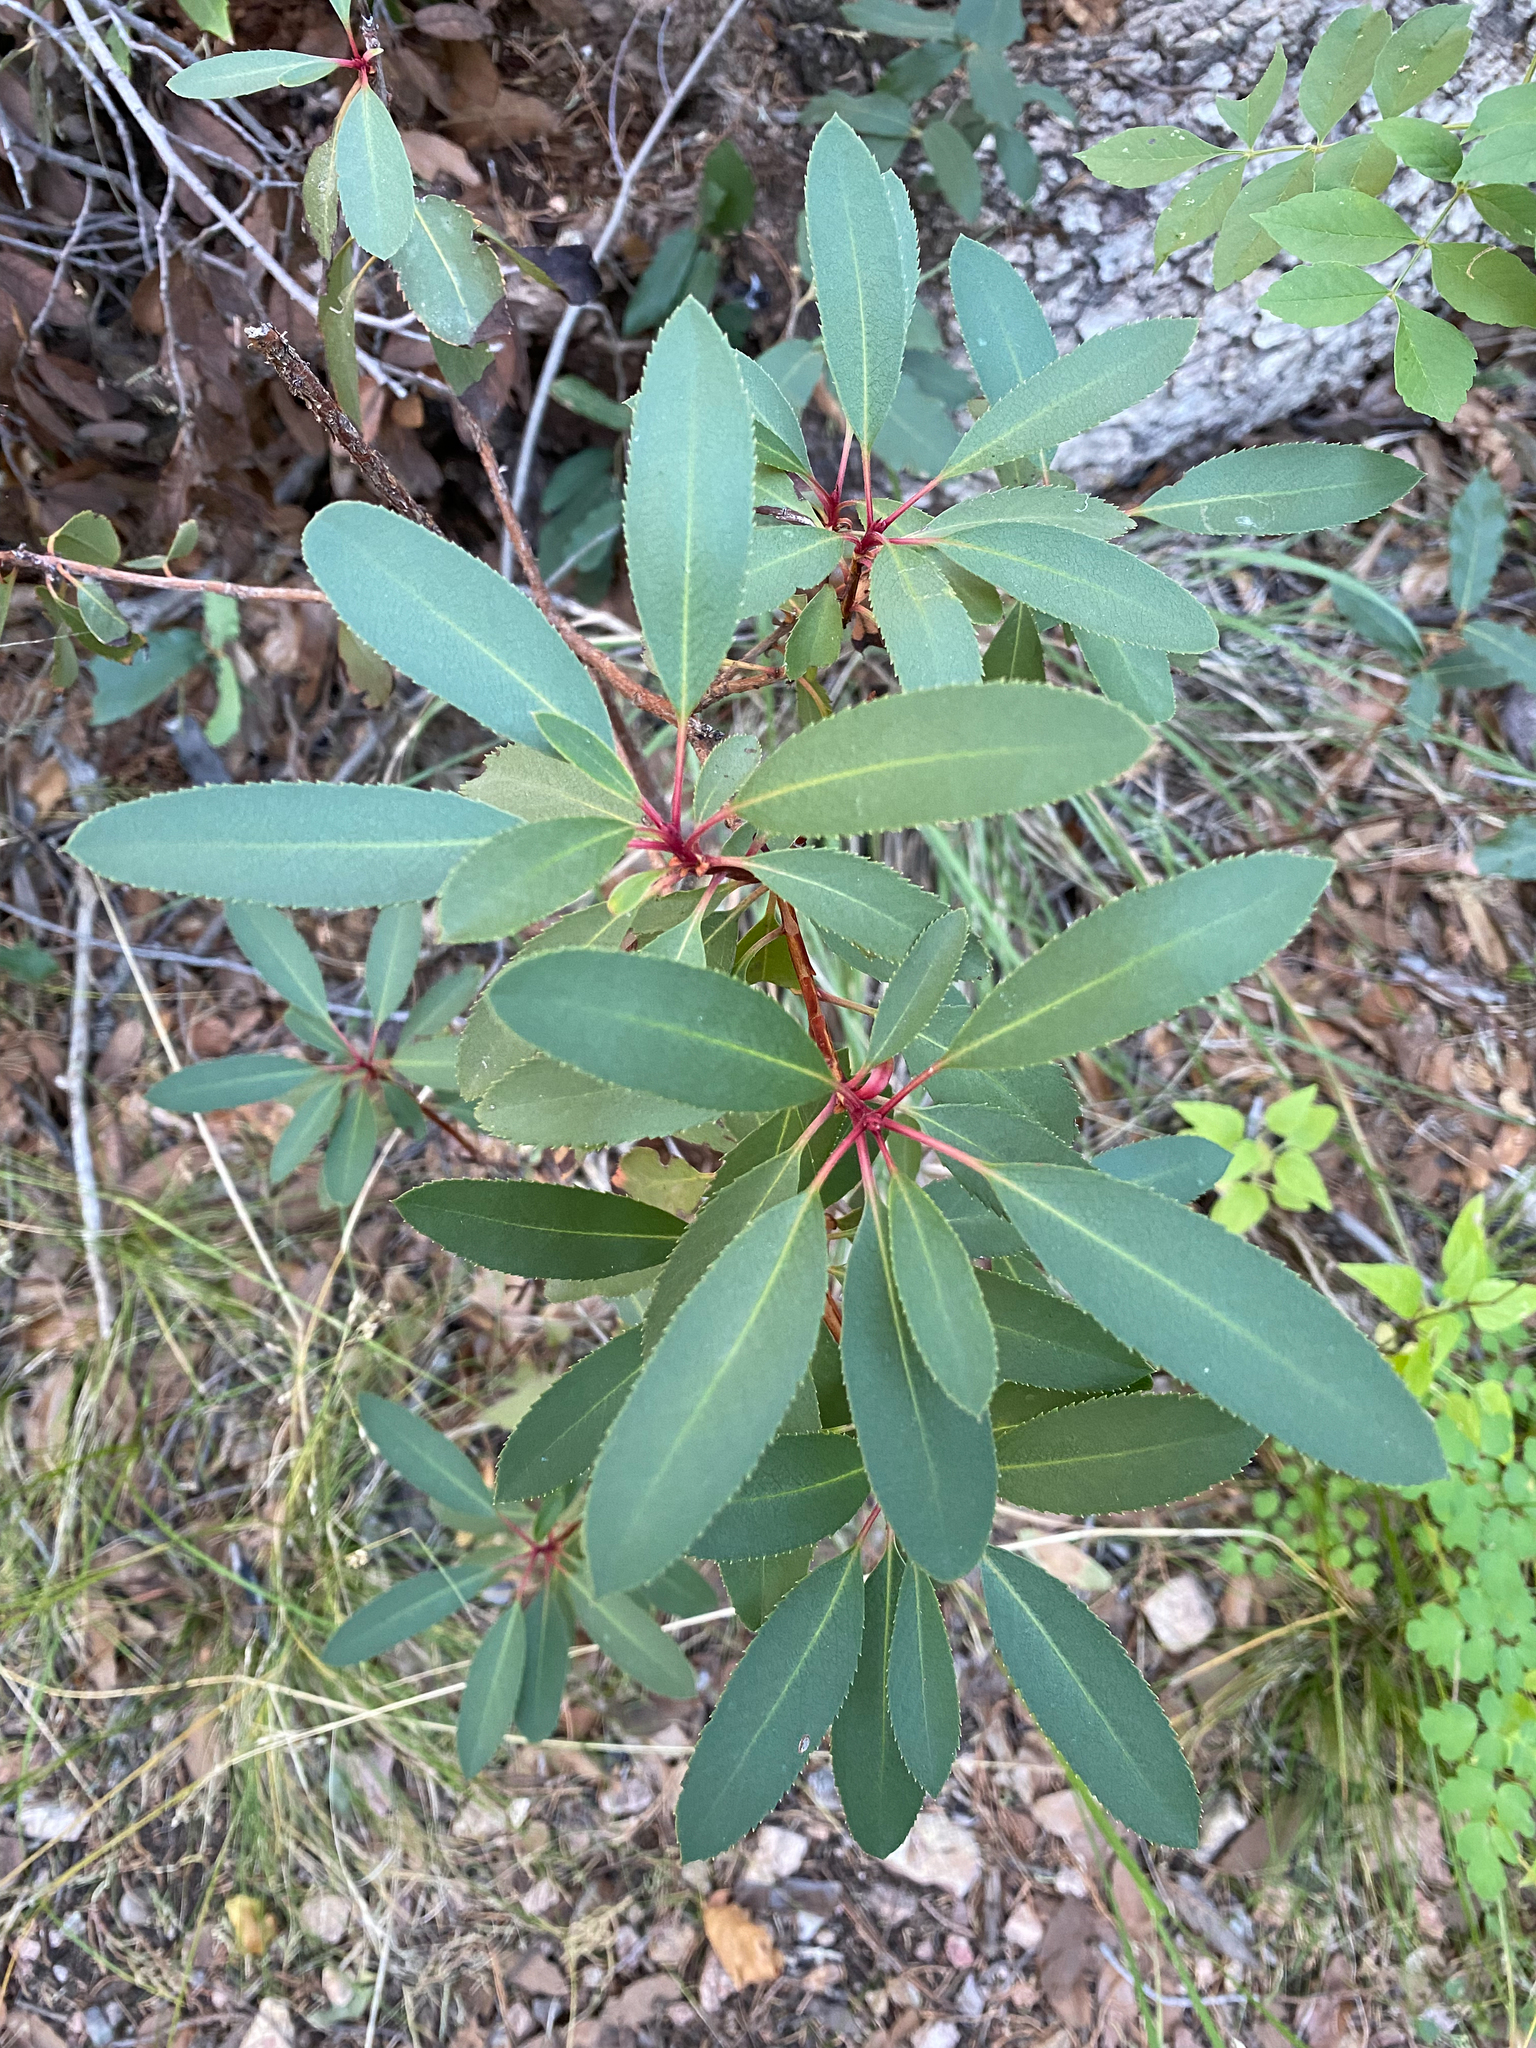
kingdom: Plantae
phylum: Tracheophyta
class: Magnoliopsida
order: Ericales
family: Ericaceae
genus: Arbutus
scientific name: Arbutus arizonica
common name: Arizona madrone
